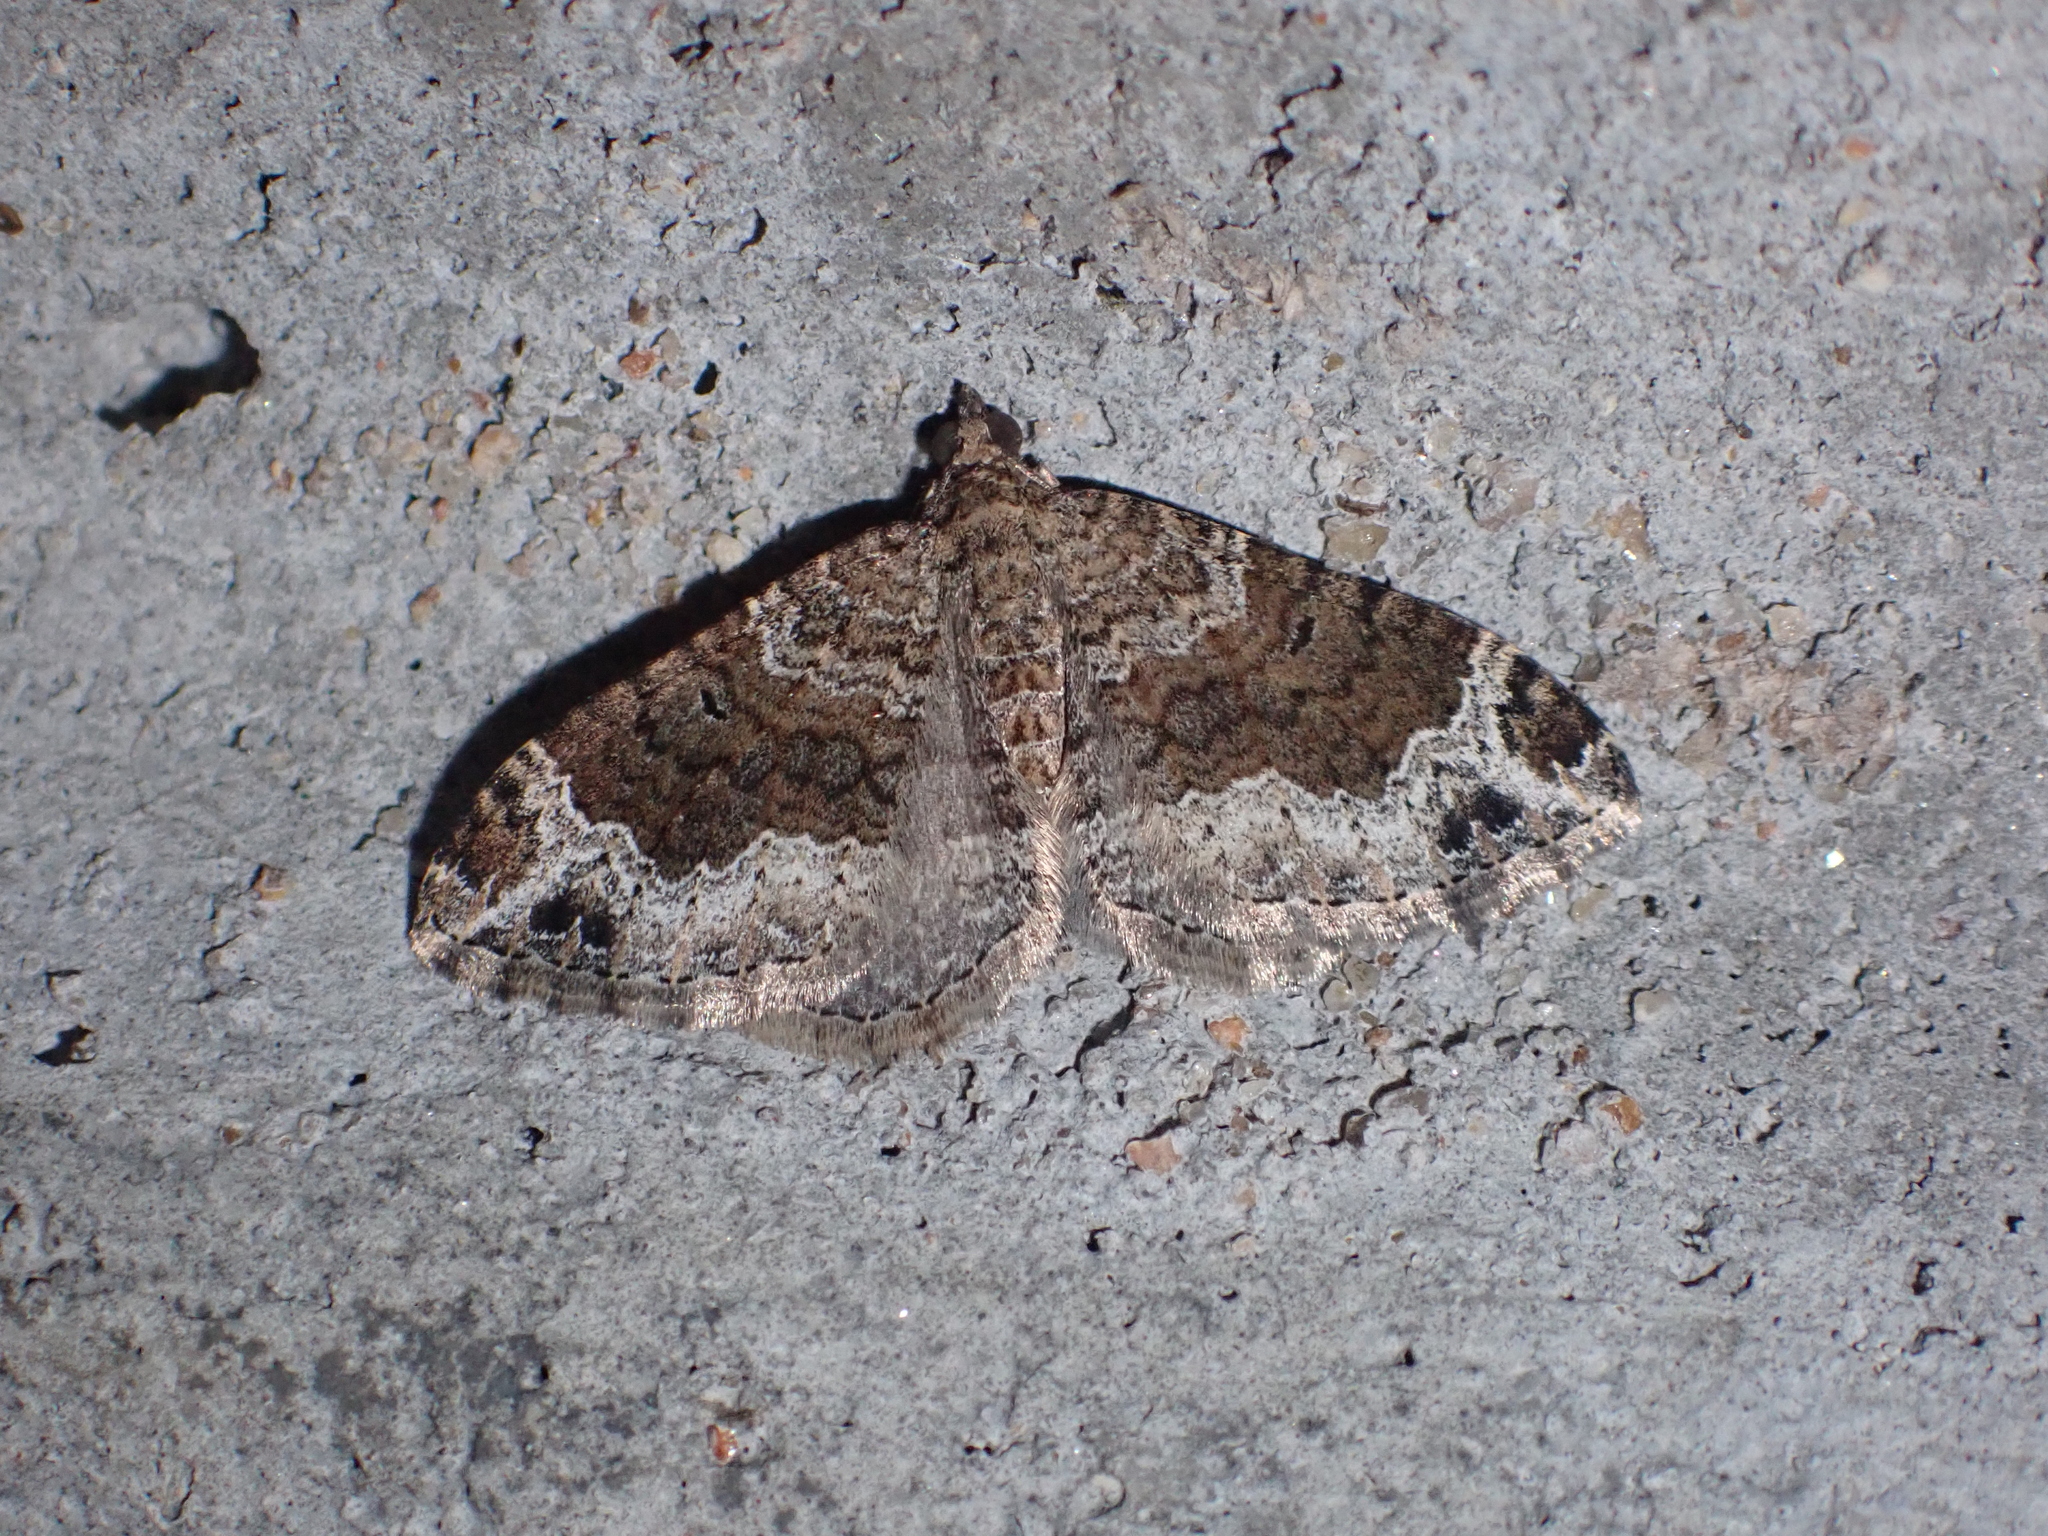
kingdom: Animalia
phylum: Arthropoda
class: Insecta
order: Lepidoptera
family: Geometridae
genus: Xanthorhoe
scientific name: Xanthorhoe saturata
